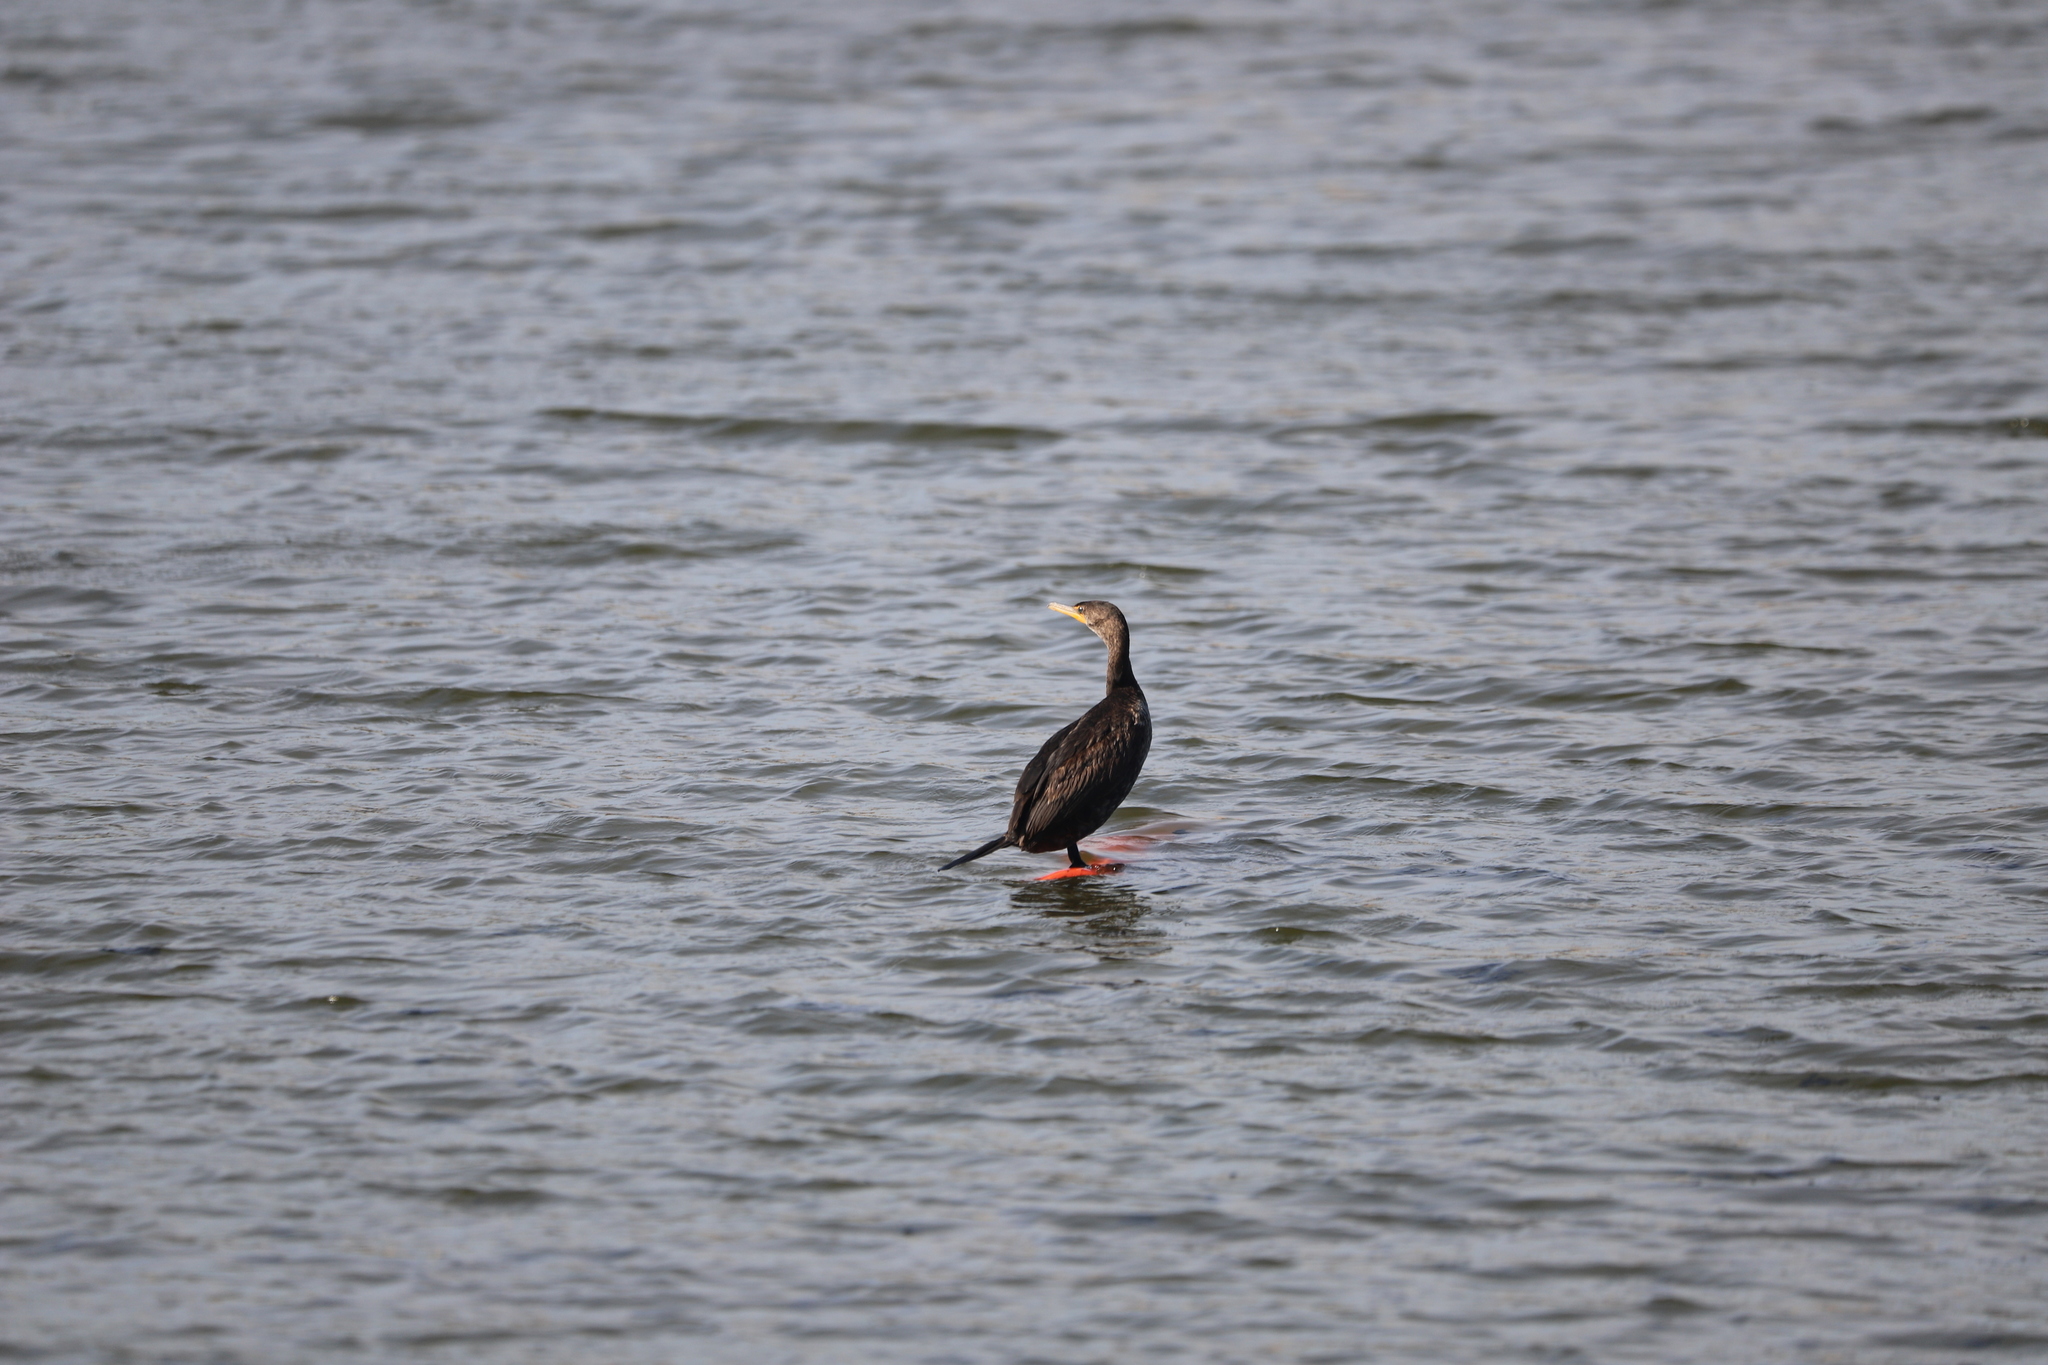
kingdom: Animalia
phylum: Chordata
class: Aves
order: Suliformes
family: Phalacrocoracidae
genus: Phalacrocorax
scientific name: Phalacrocorax auritus
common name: Double-crested cormorant
